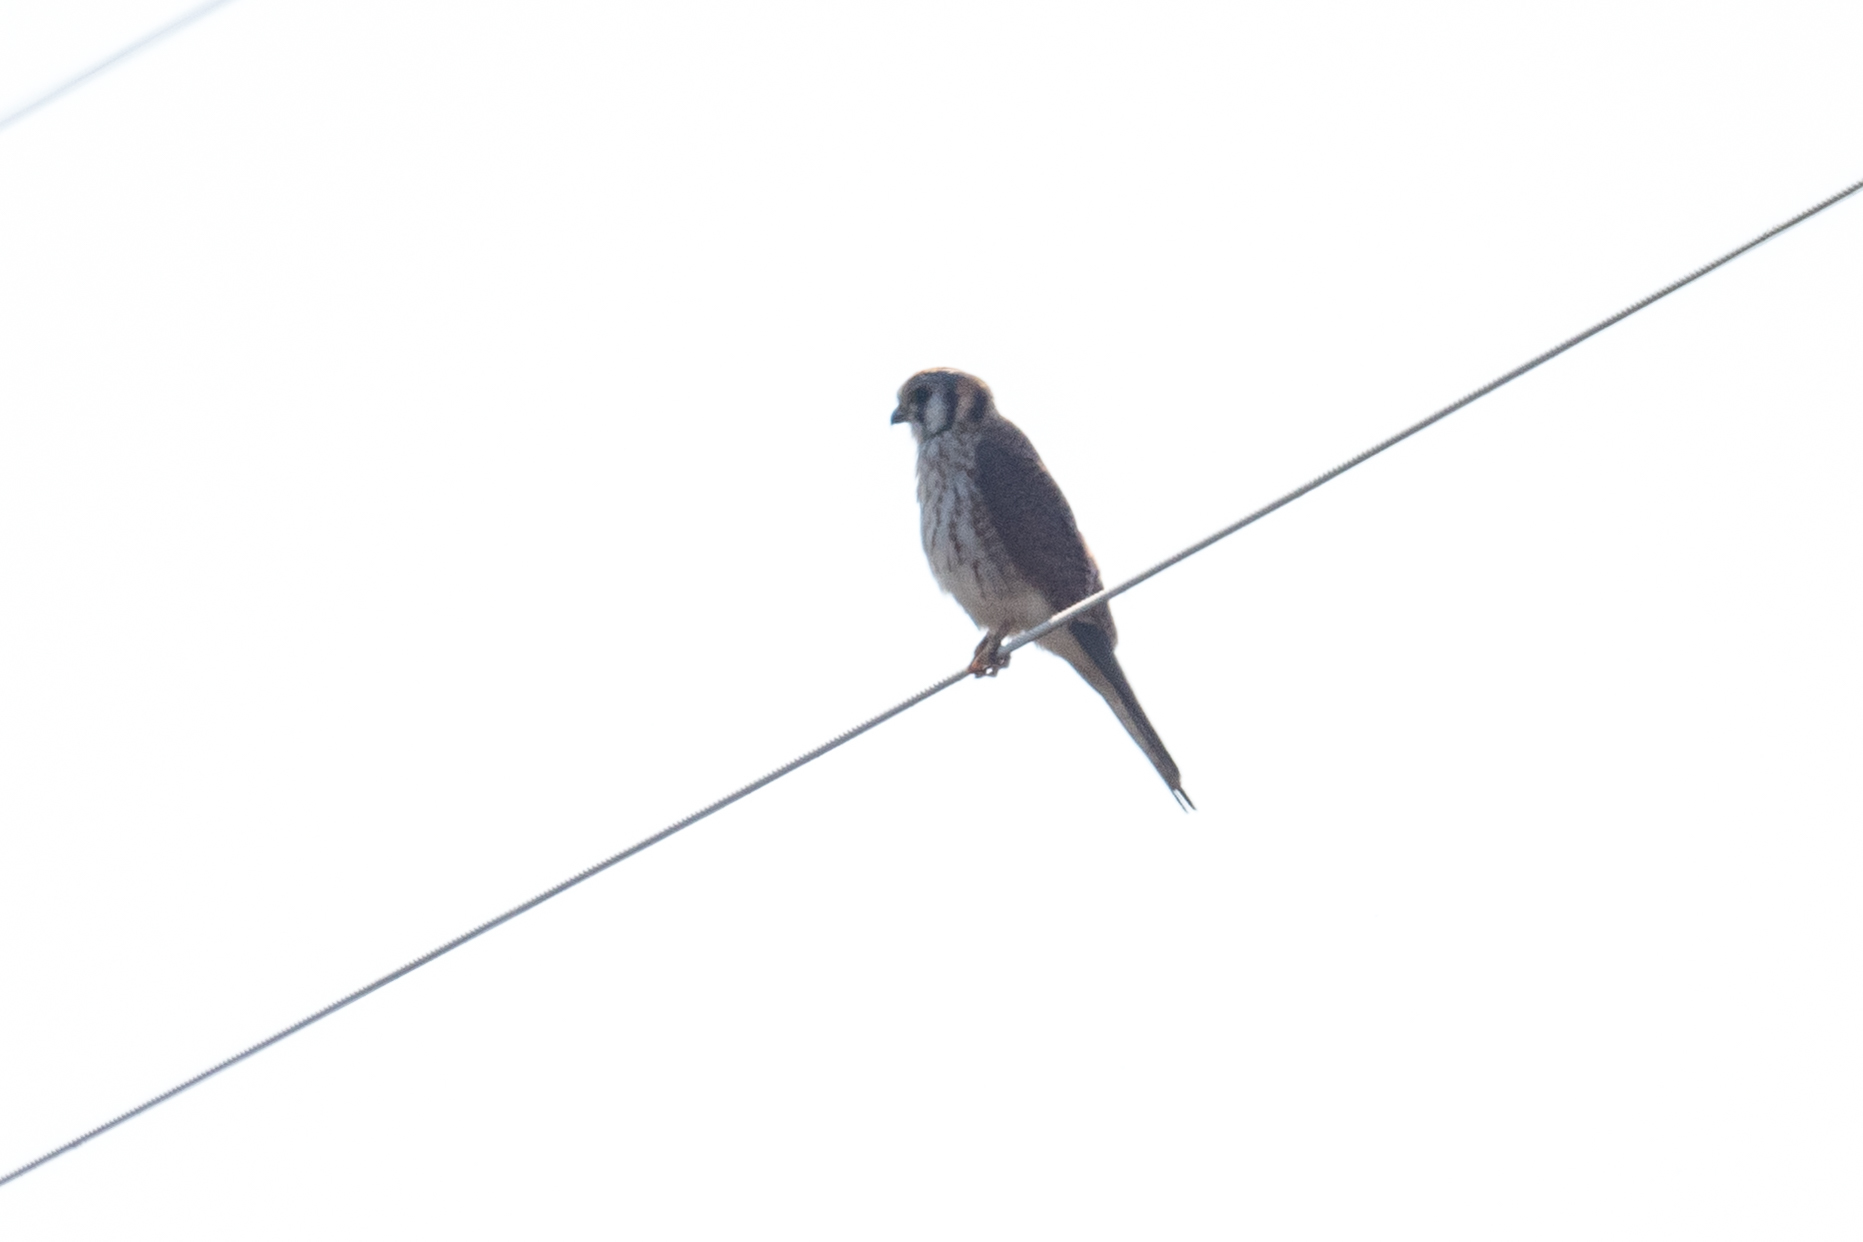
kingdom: Animalia
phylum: Chordata
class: Aves
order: Falconiformes
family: Falconidae
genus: Falco
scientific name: Falco sparverius
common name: American kestrel
